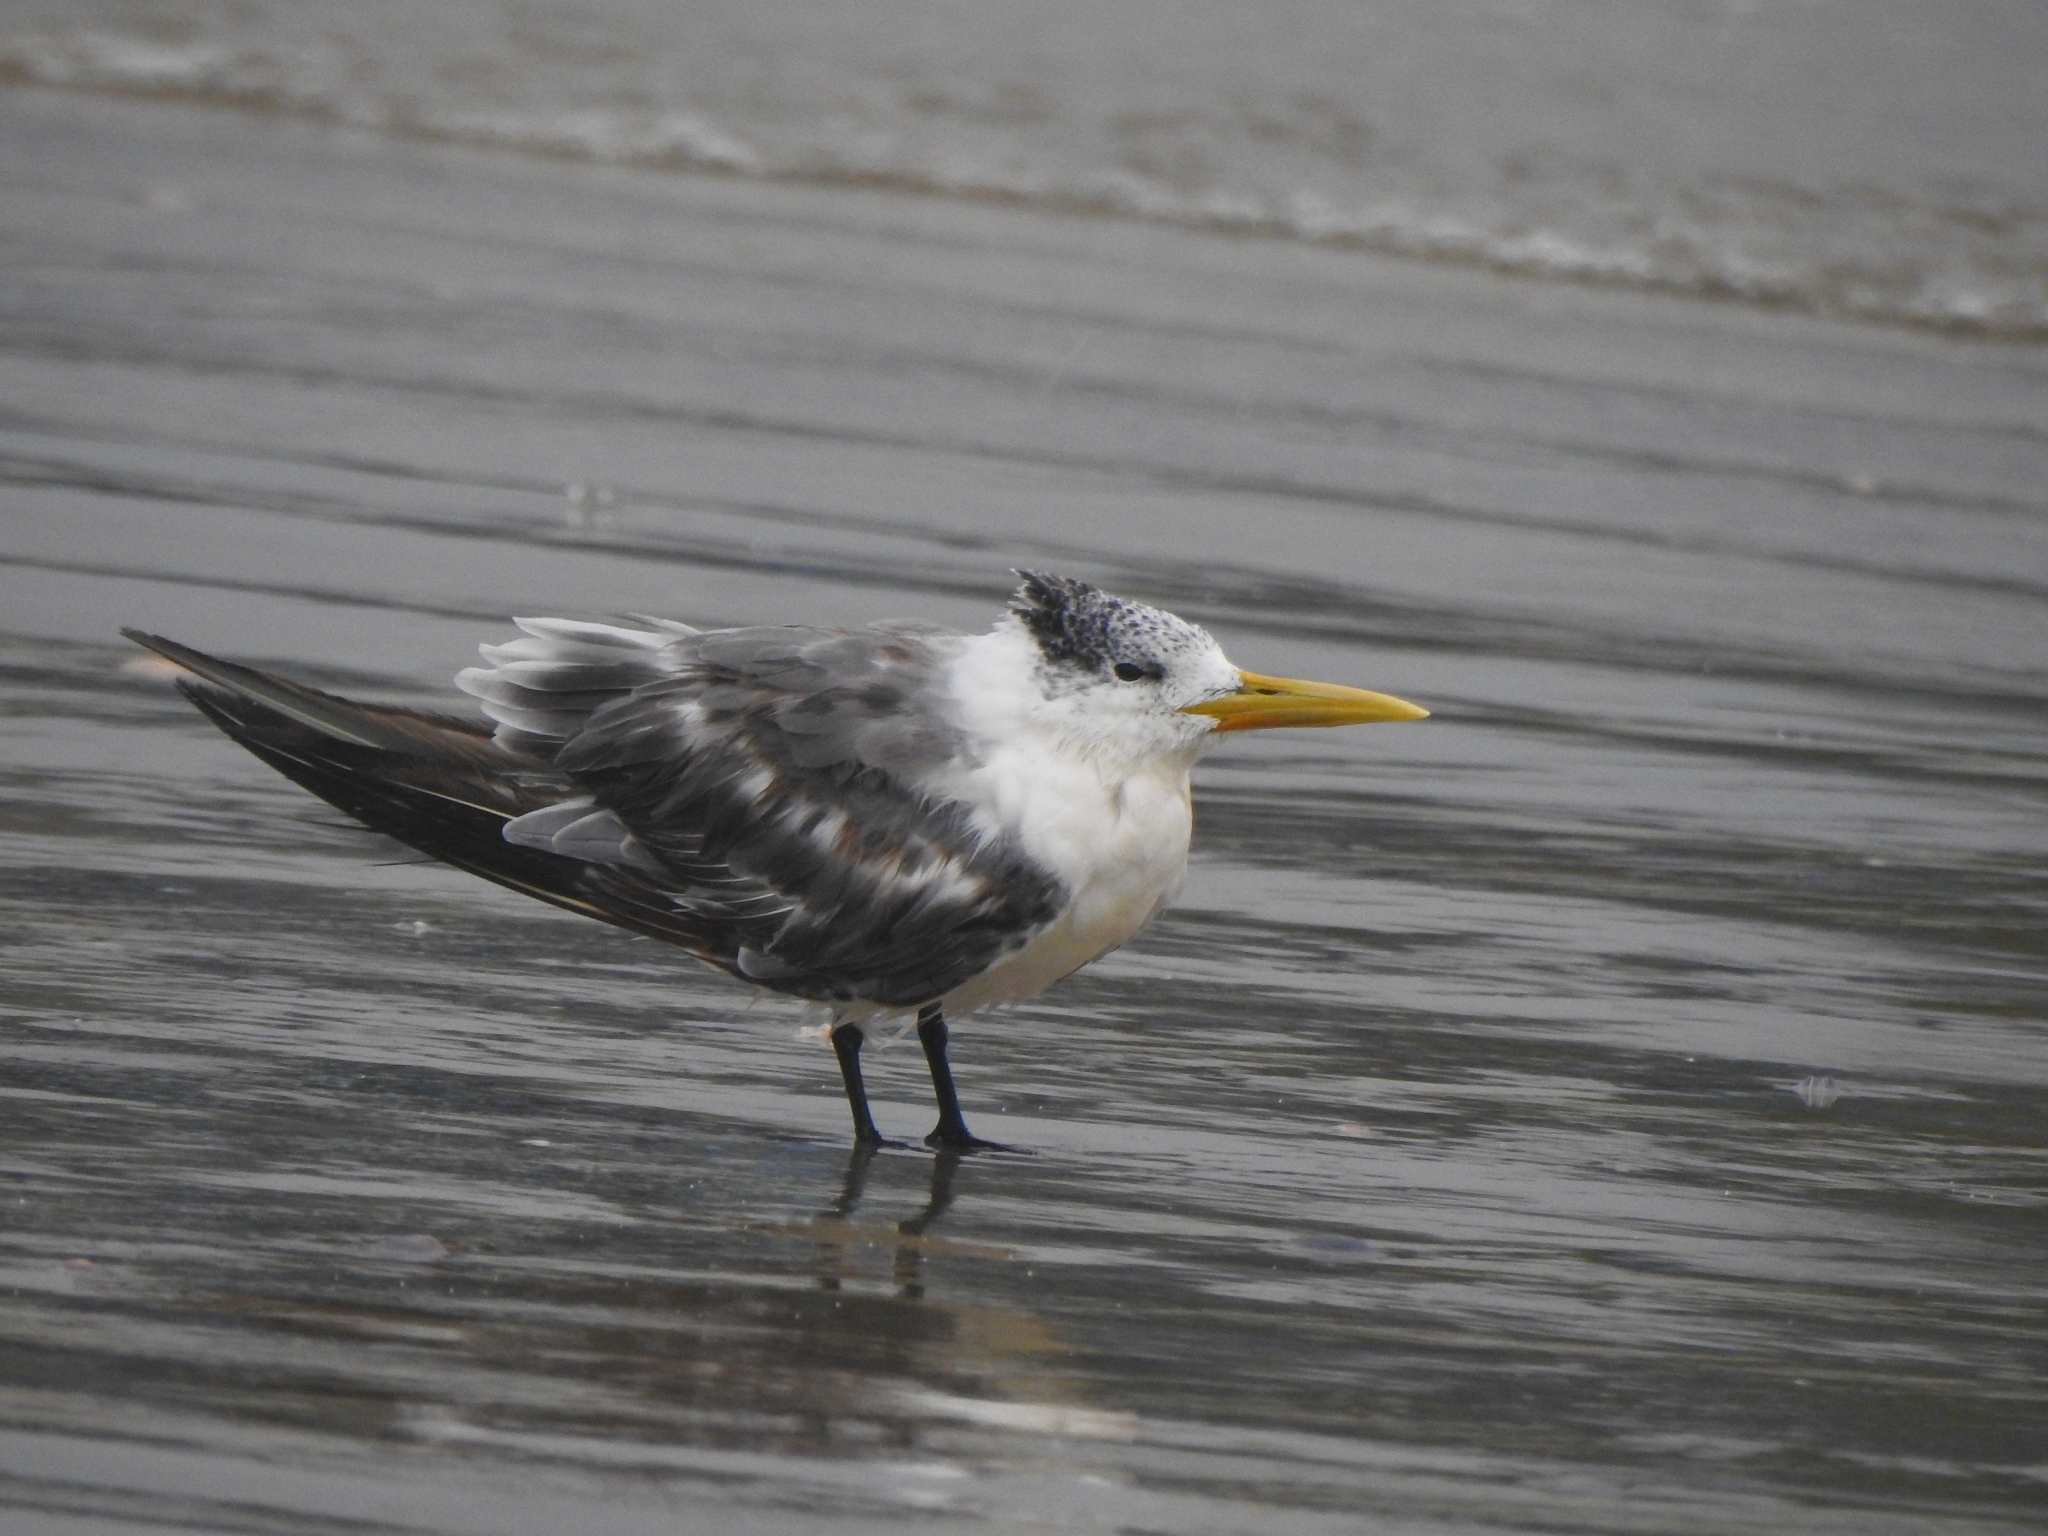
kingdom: Animalia
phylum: Chordata
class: Aves
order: Charadriiformes
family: Laridae
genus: Thalasseus
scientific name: Thalasseus bergii
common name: Greater crested tern
